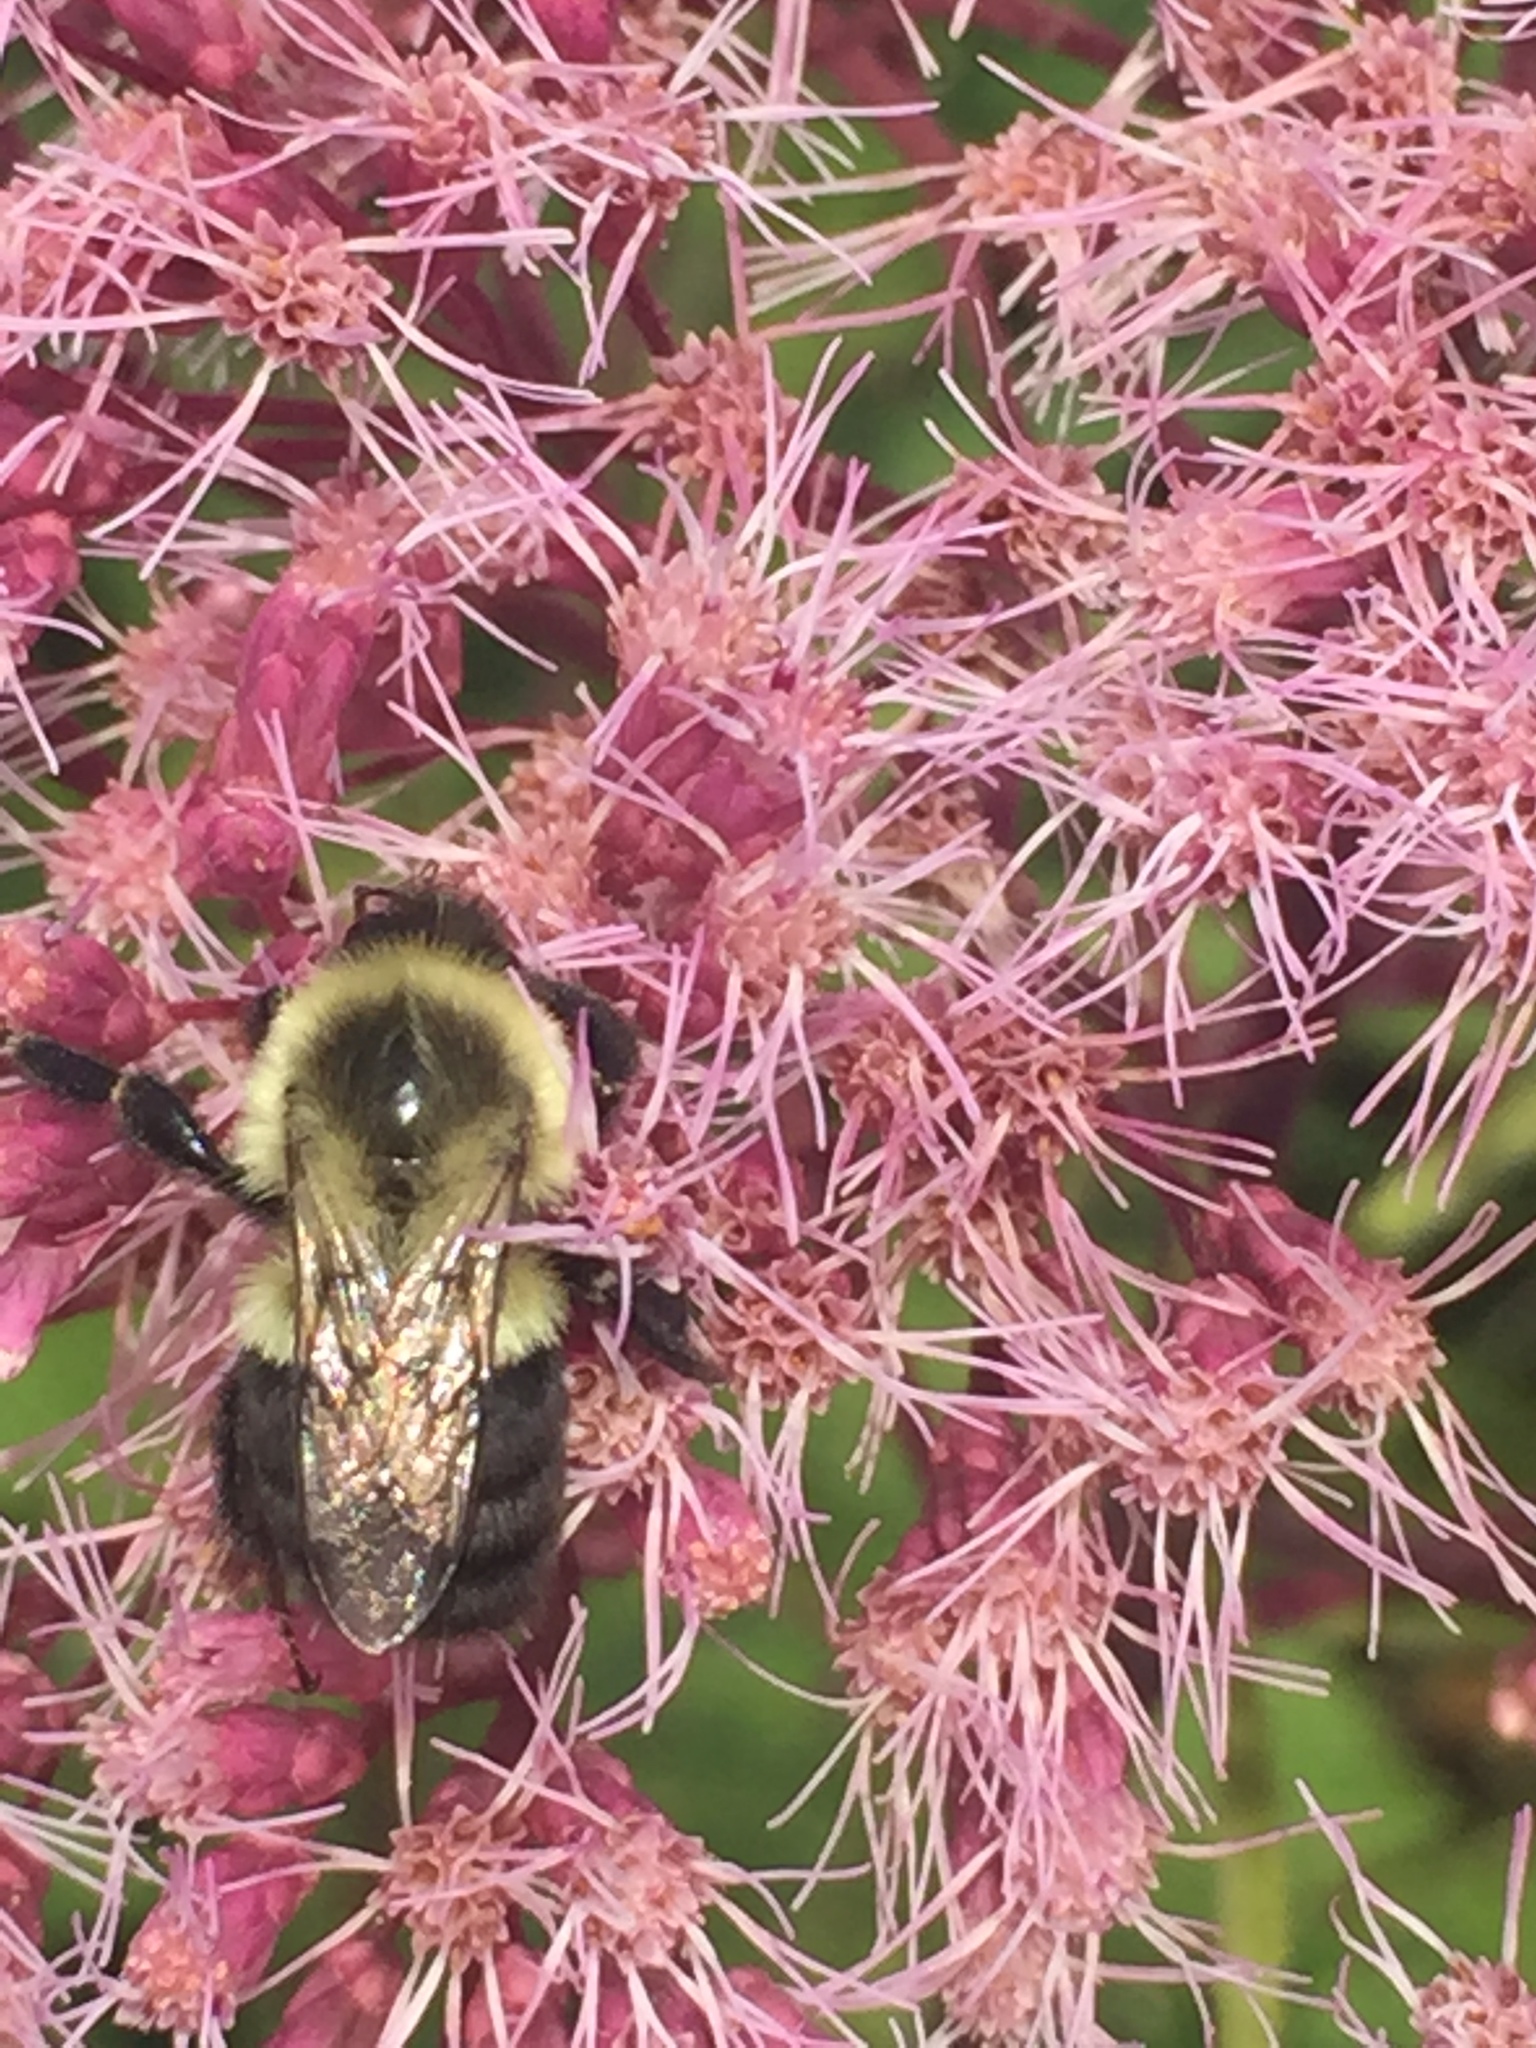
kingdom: Animalia
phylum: Arthropoda
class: Insecta
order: Hymenoptera
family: Apidae
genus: Bombus
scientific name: Bombus impatiens
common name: Common eastern bumble bee
